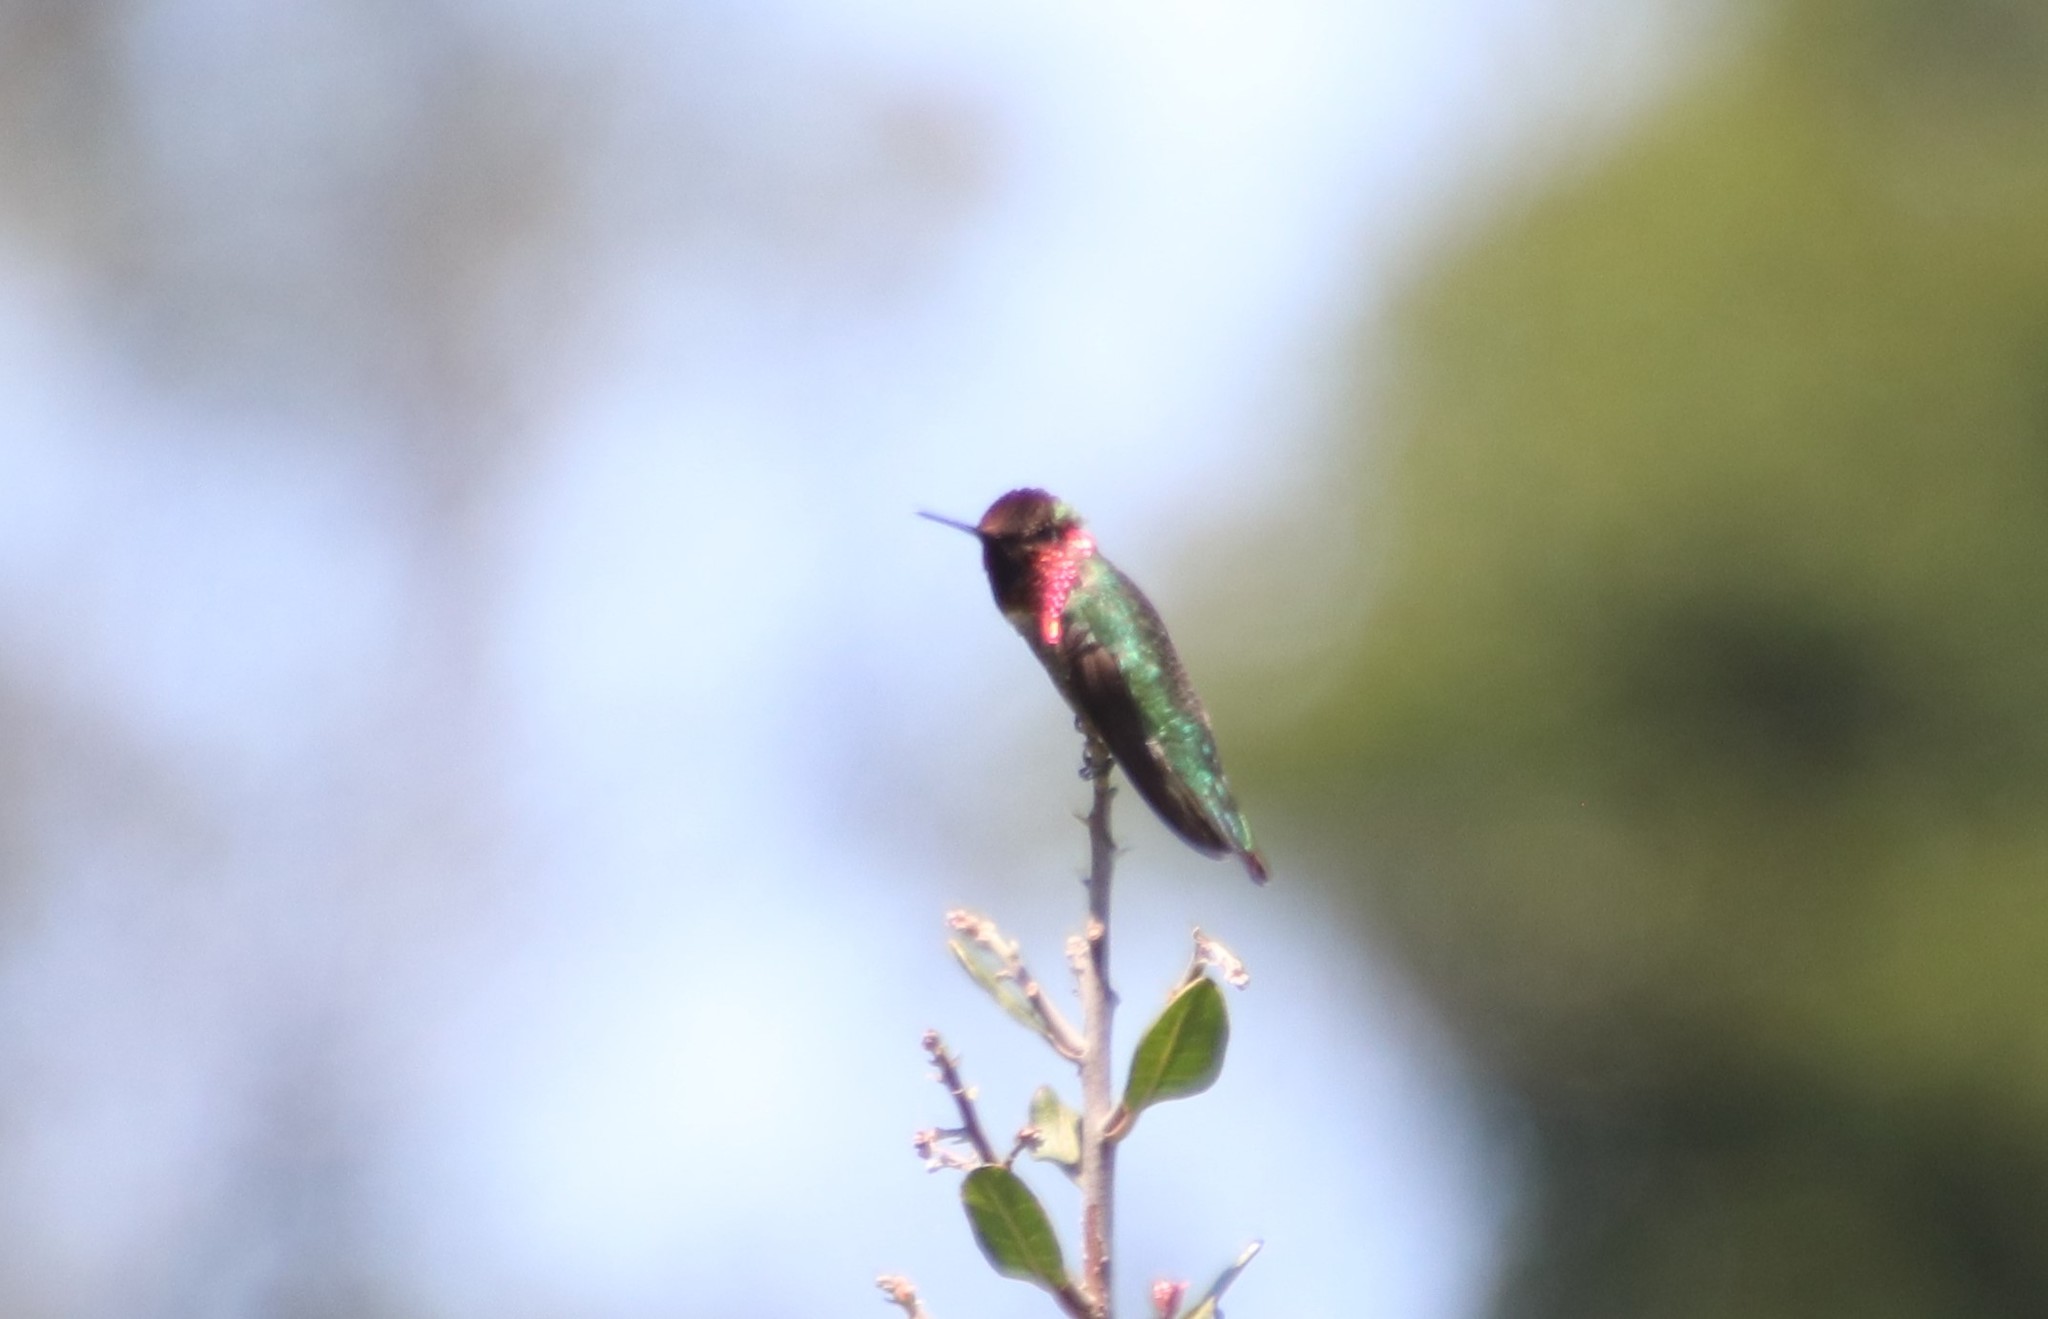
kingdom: Animalia
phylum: Chordata
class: Aves
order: Apodiformes
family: Trochilidae
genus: Calypte
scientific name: Calypte anna
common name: Anna's hummingbird
